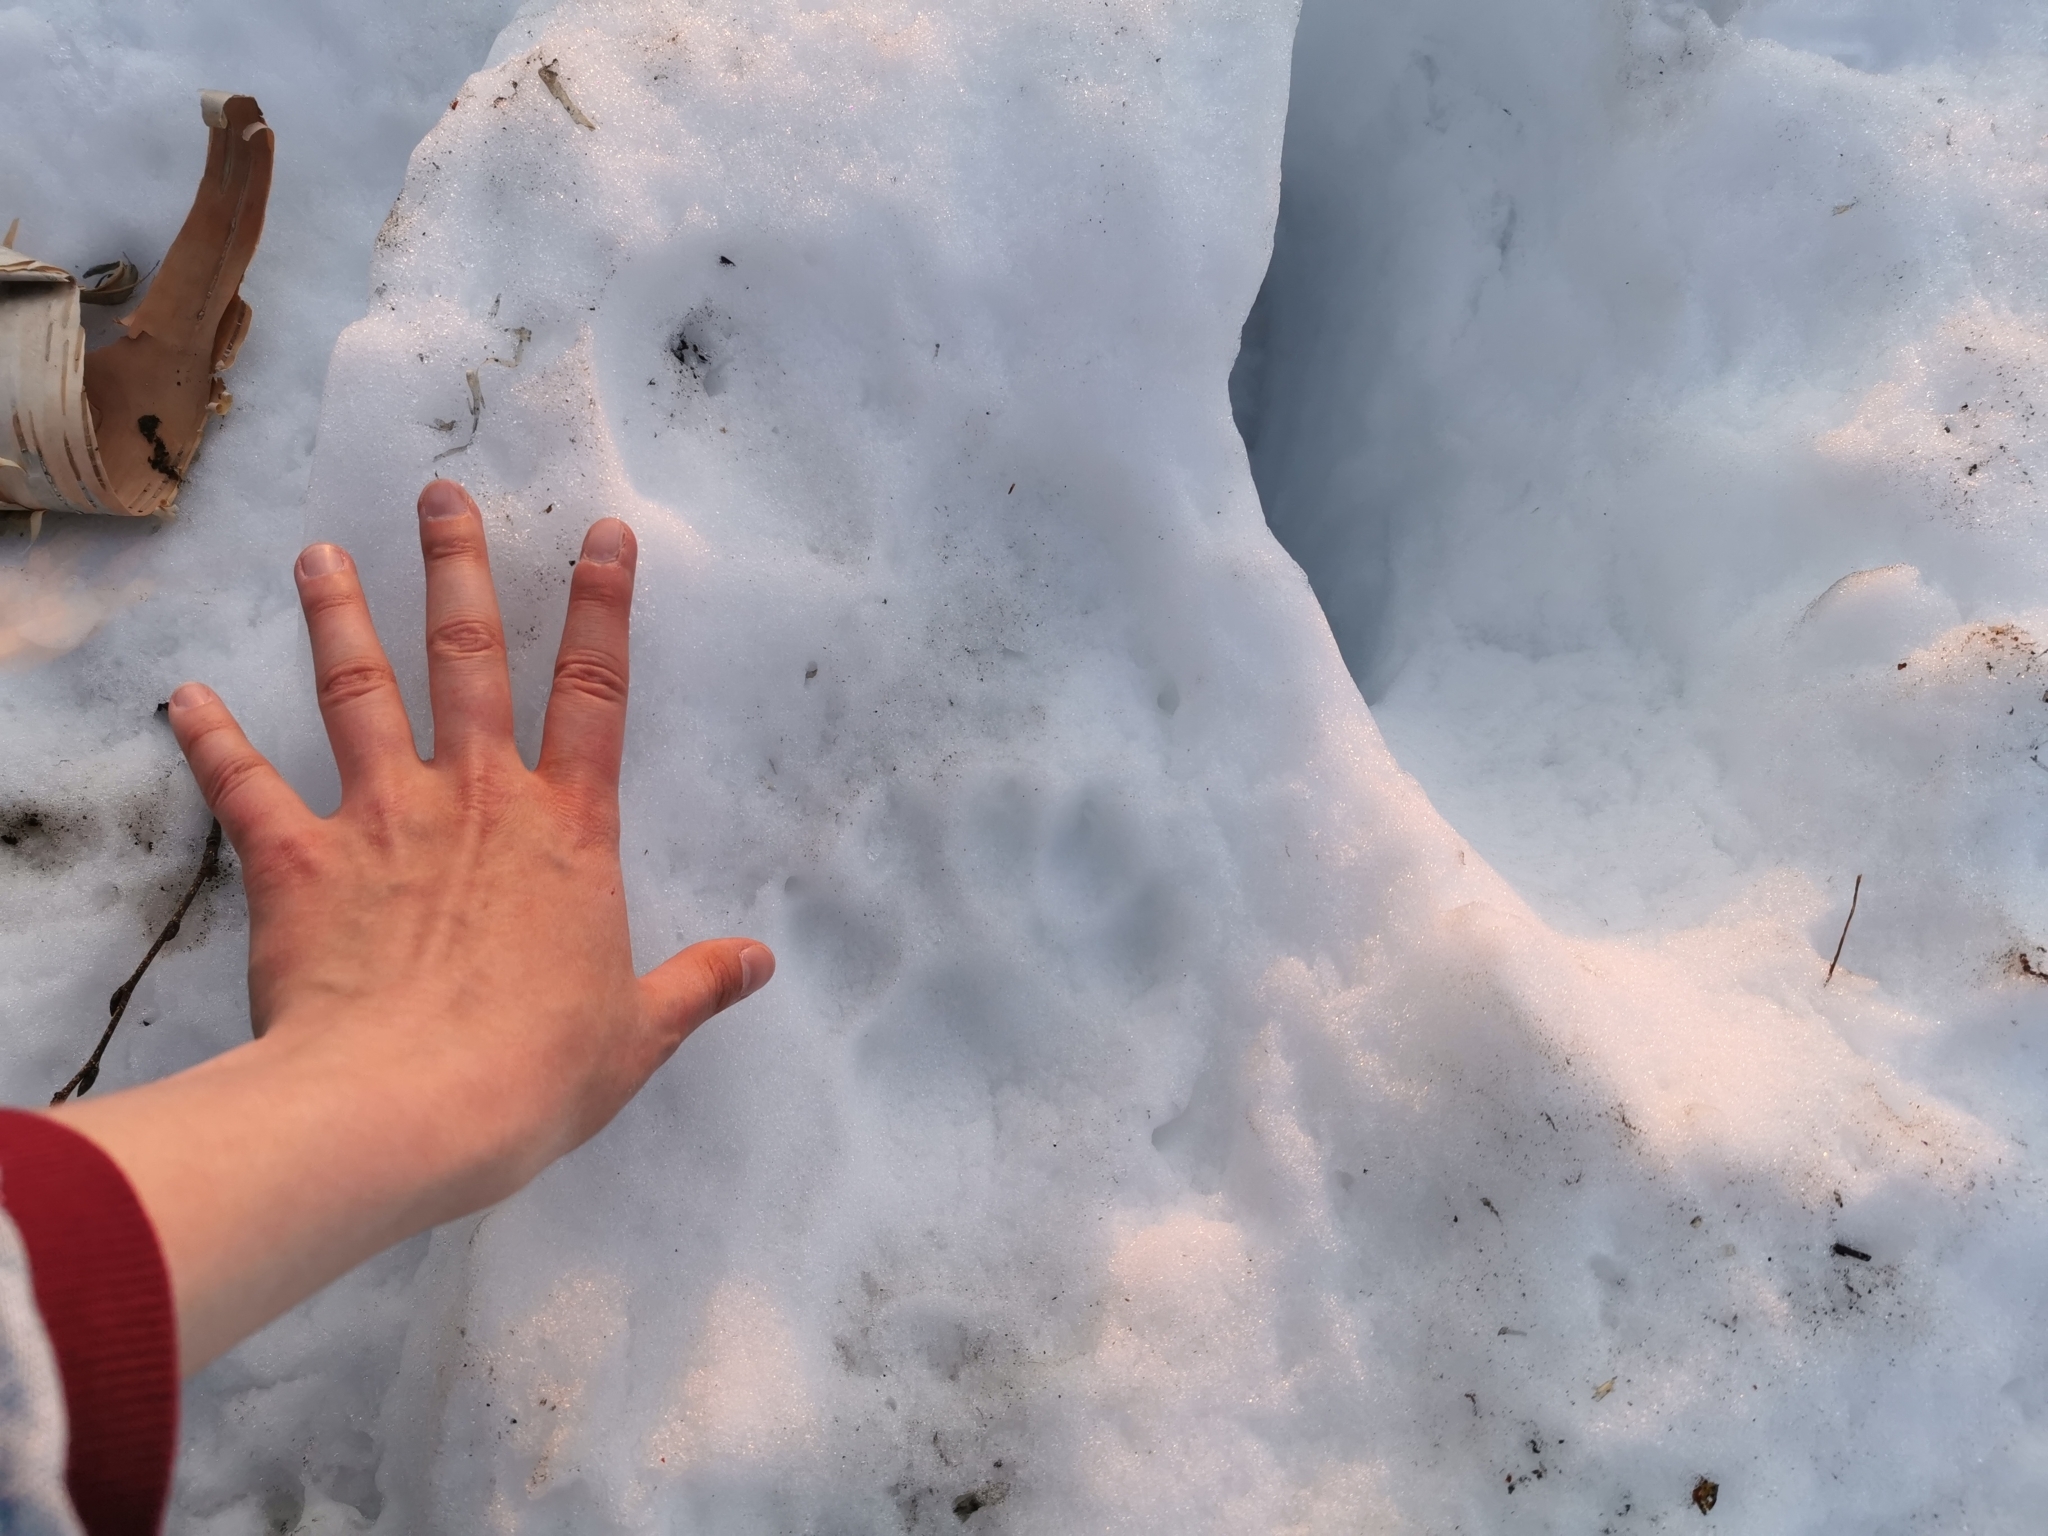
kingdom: Animalia
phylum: Chordata
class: Mammalia
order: Carnivora
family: Ursidae
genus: Ursus
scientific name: Ursus arctos
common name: Brown bear
